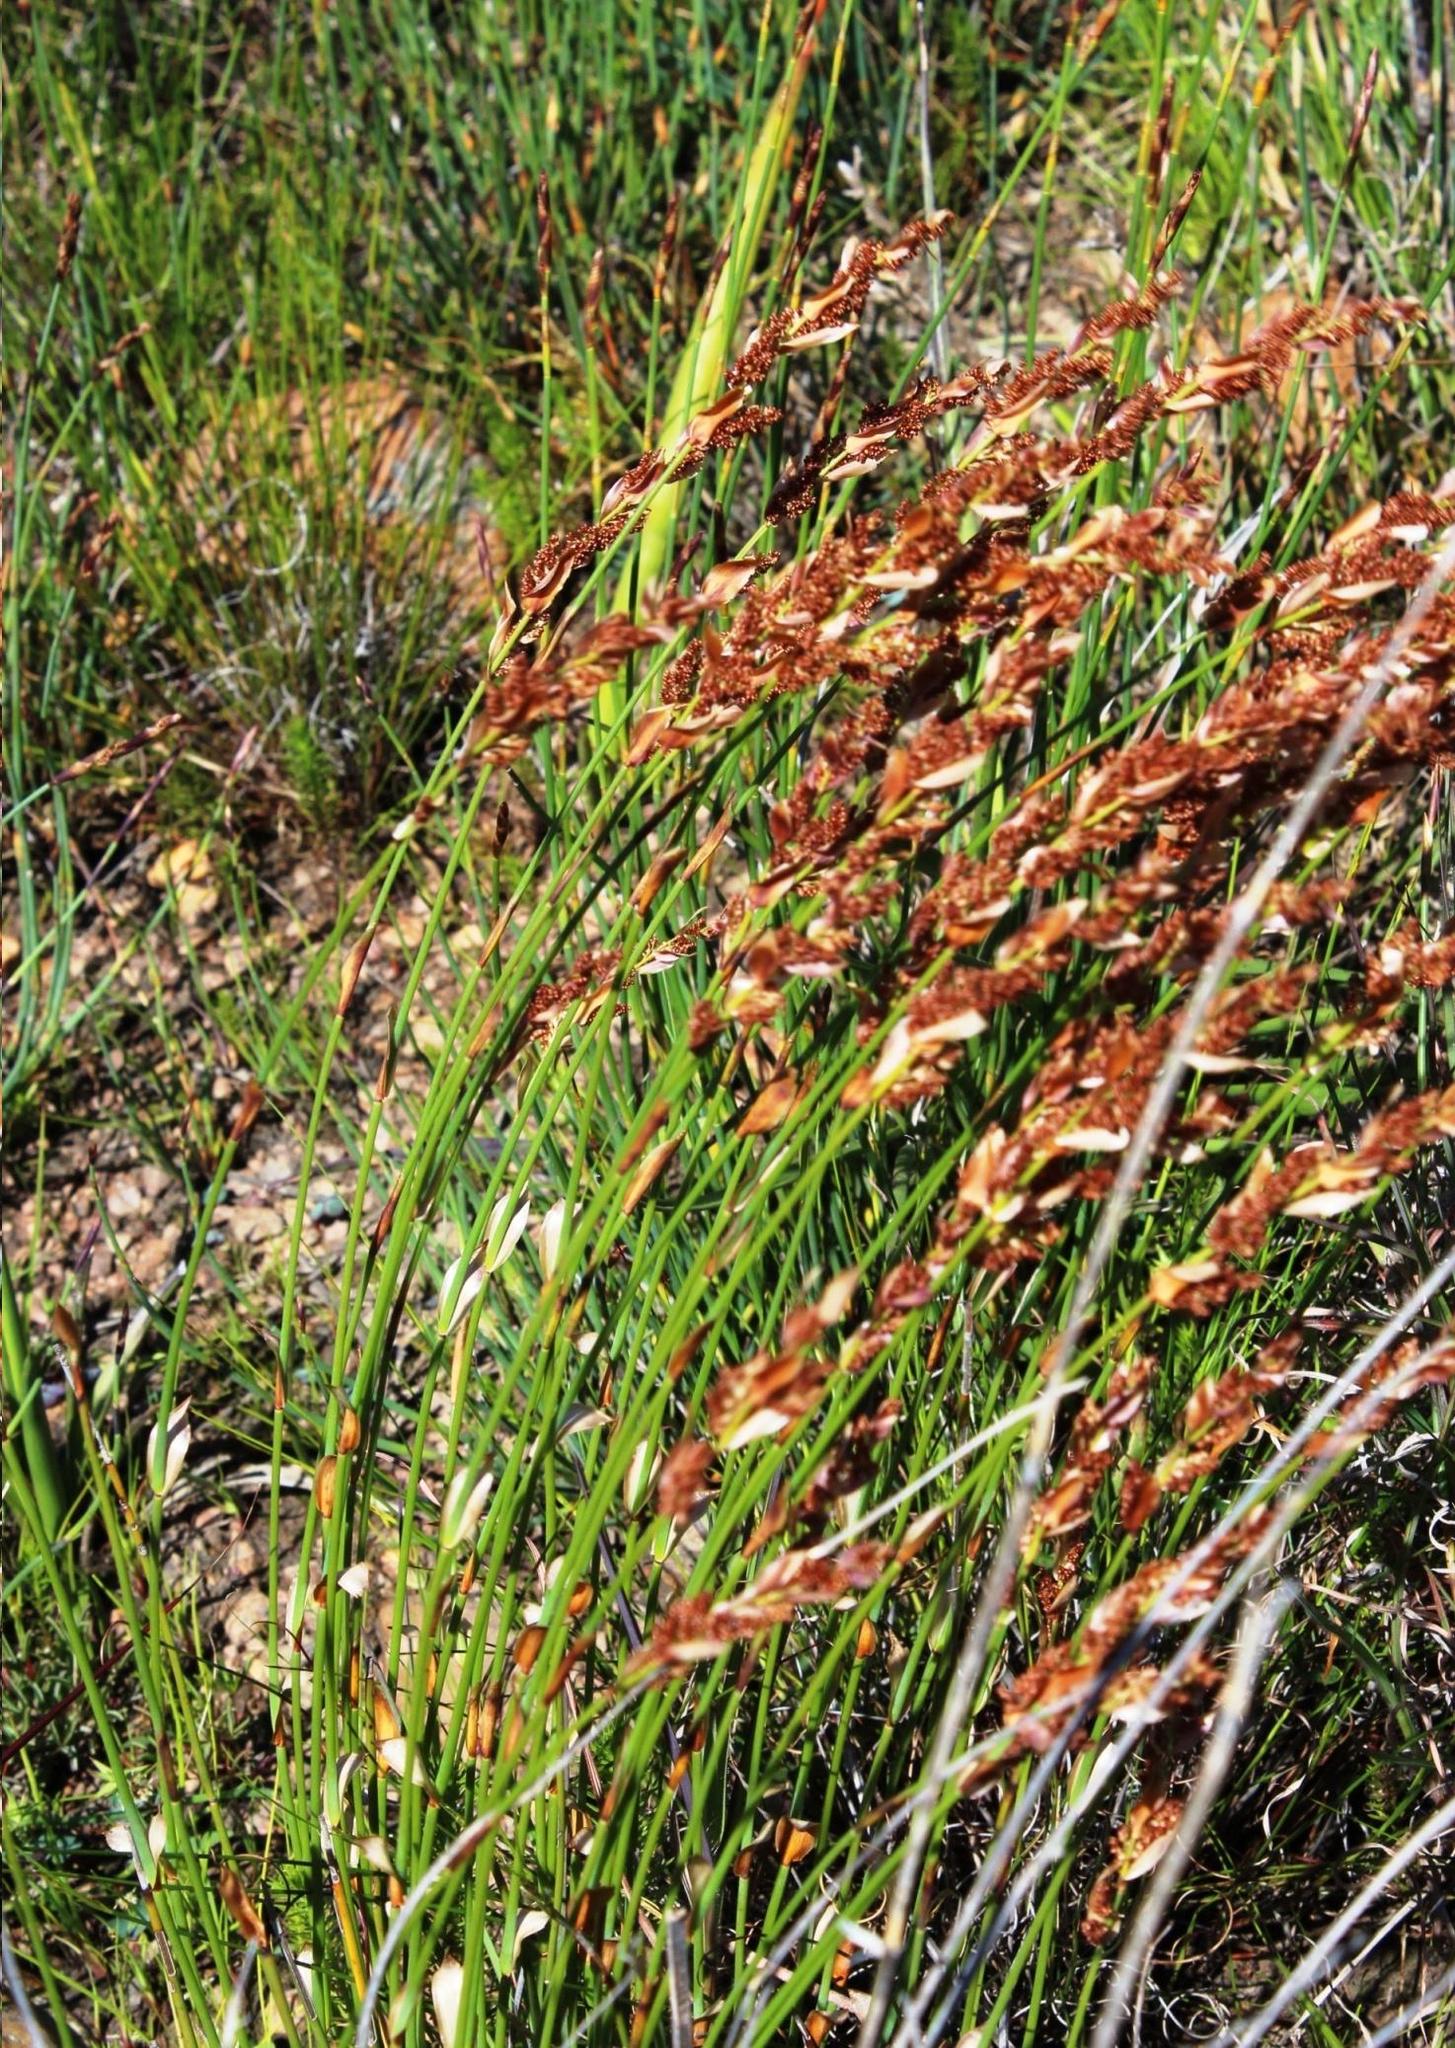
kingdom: Plantae
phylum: Tracheophyta
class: Liliopsida
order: Poales
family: Restionaceae
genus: Elegia
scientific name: Elegia filacea
